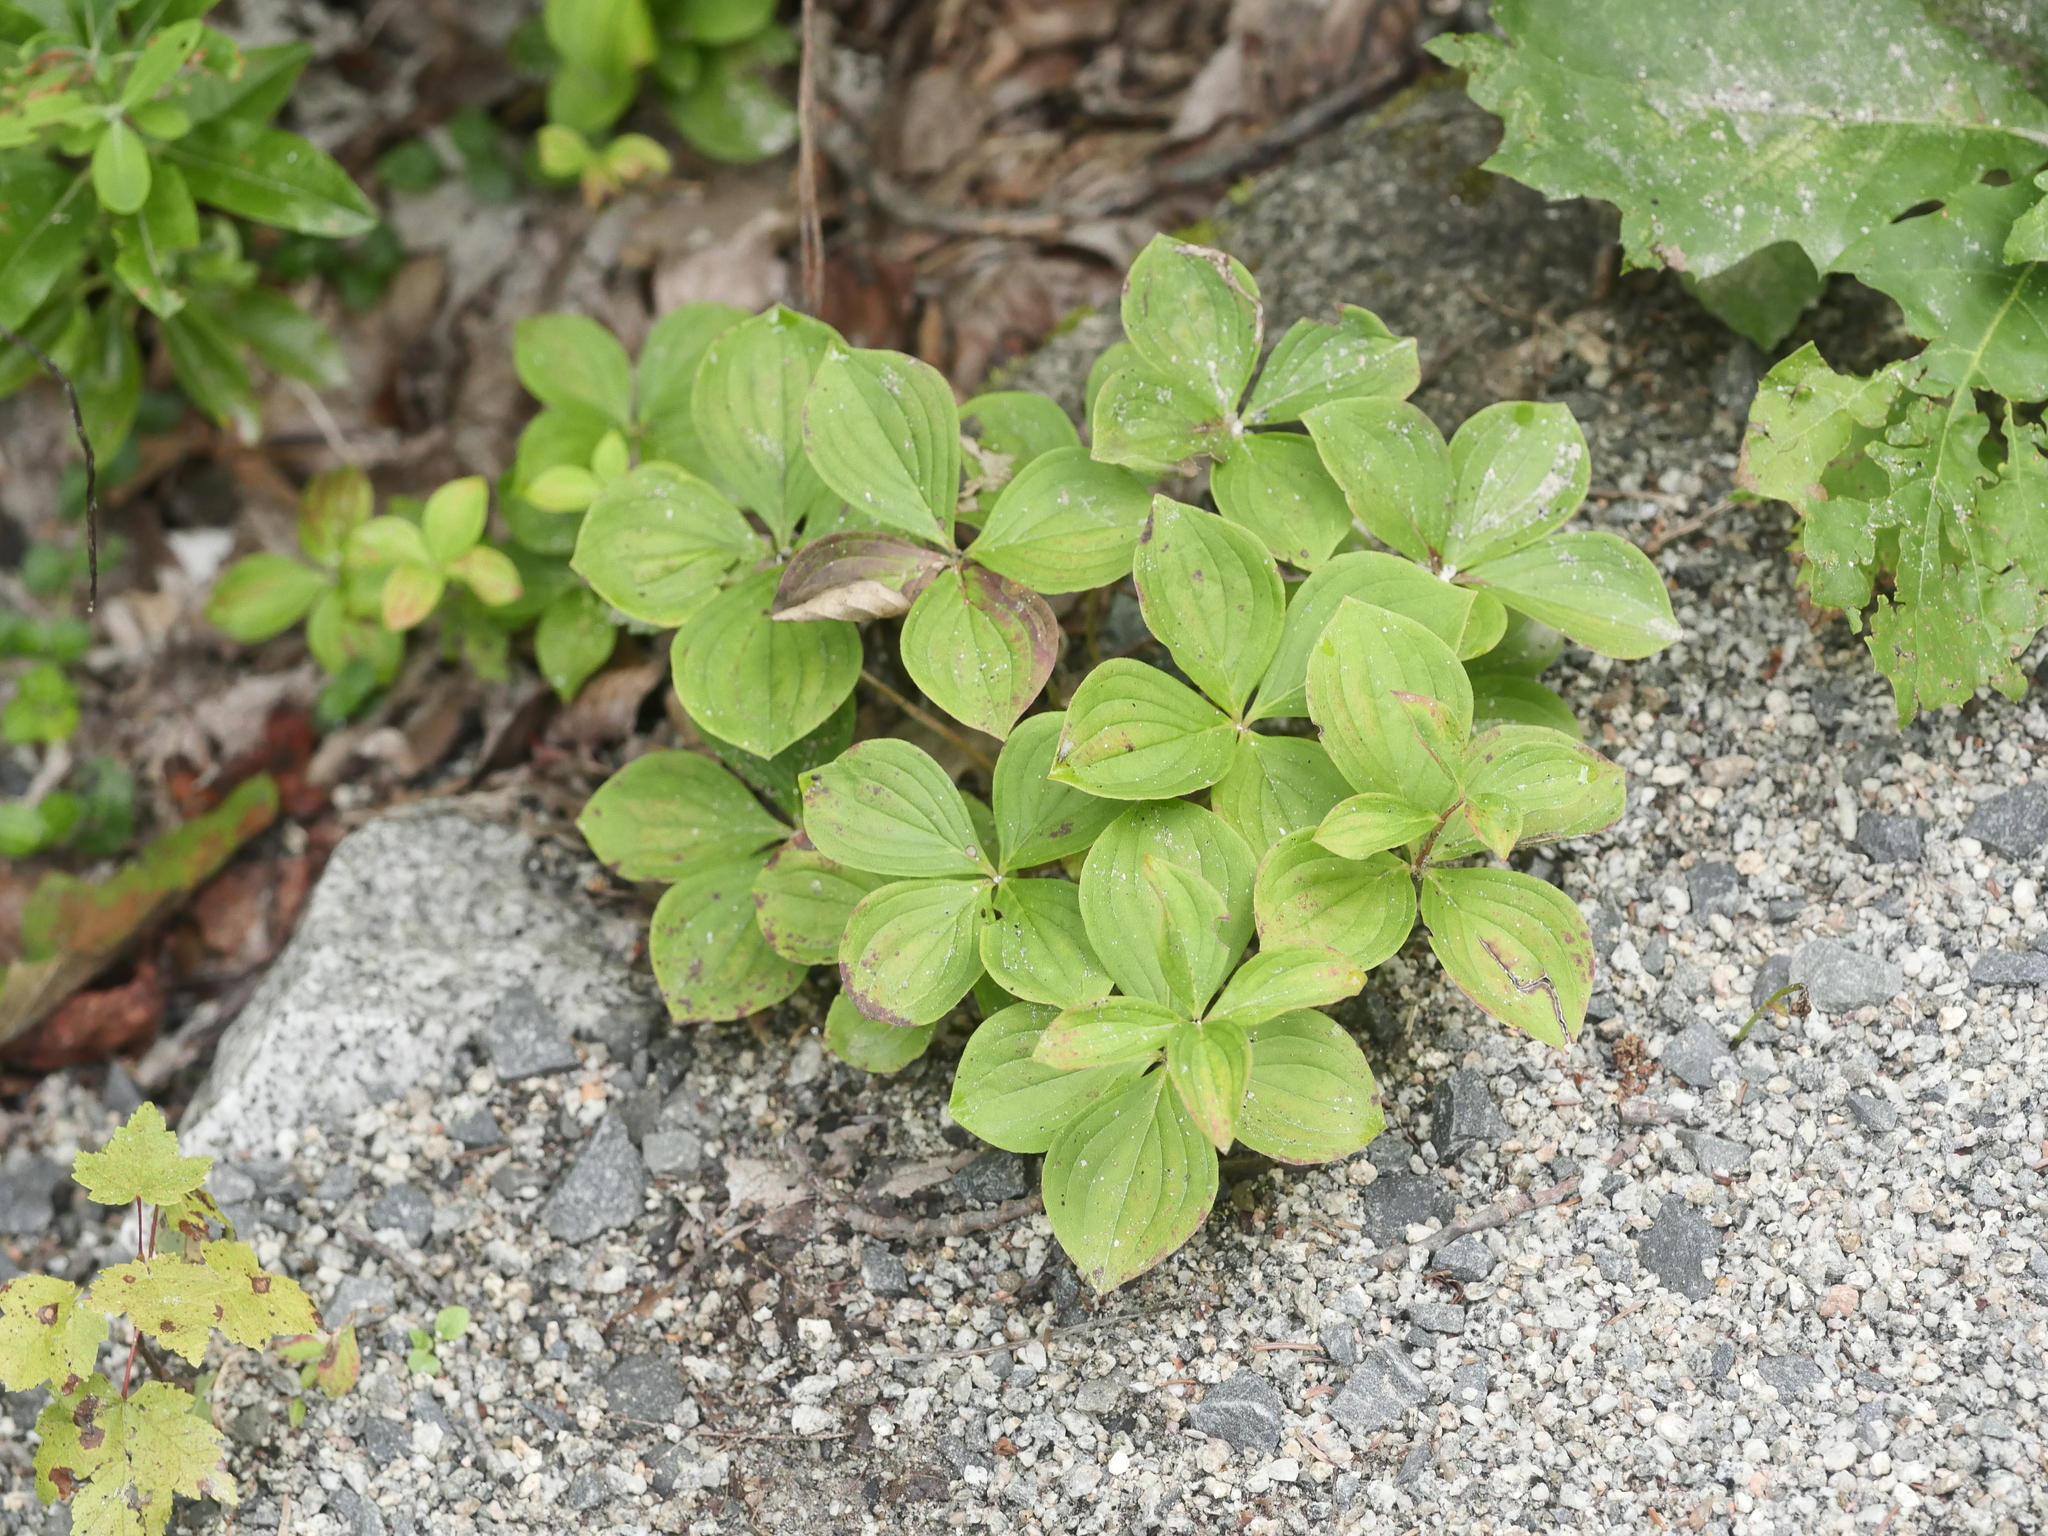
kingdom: Plantae
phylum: Tracheophyta
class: Magnoliopsida
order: Cornales
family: Cornaceae
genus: Cornus
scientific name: Cornus canadensis
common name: Creeping dogwood
